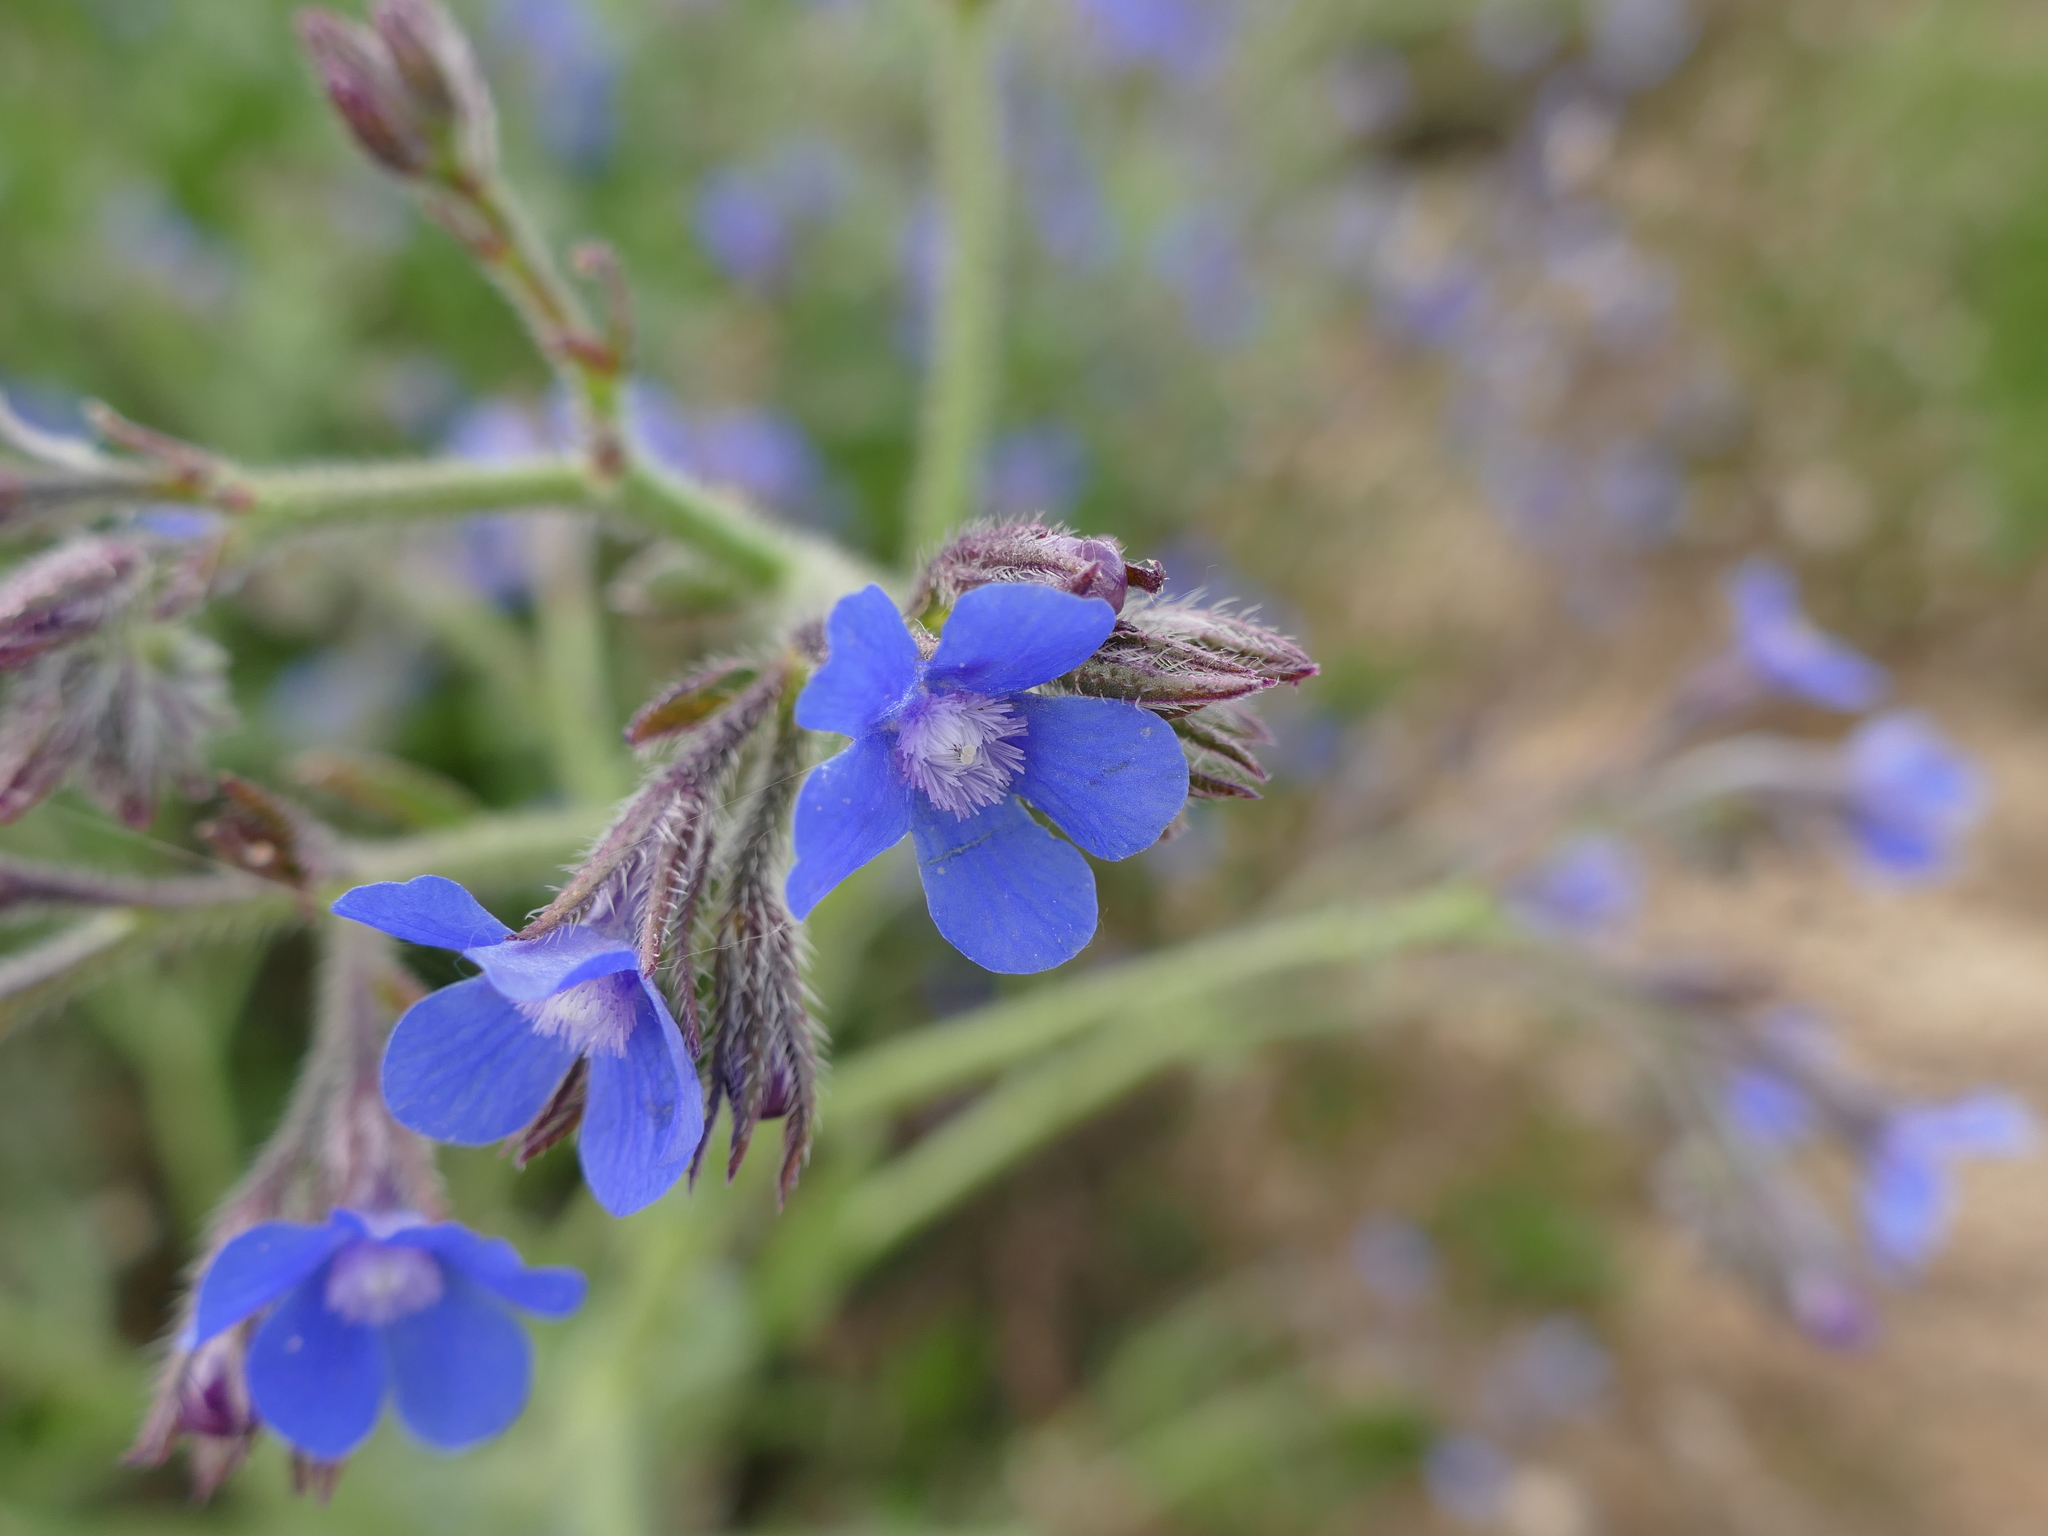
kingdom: Plantae
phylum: Tracheophyta
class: Magnoliopsida
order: Boraginales
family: Boraginaceae
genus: Anchusa
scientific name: Anchusa azurea
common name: Garden anchusa
